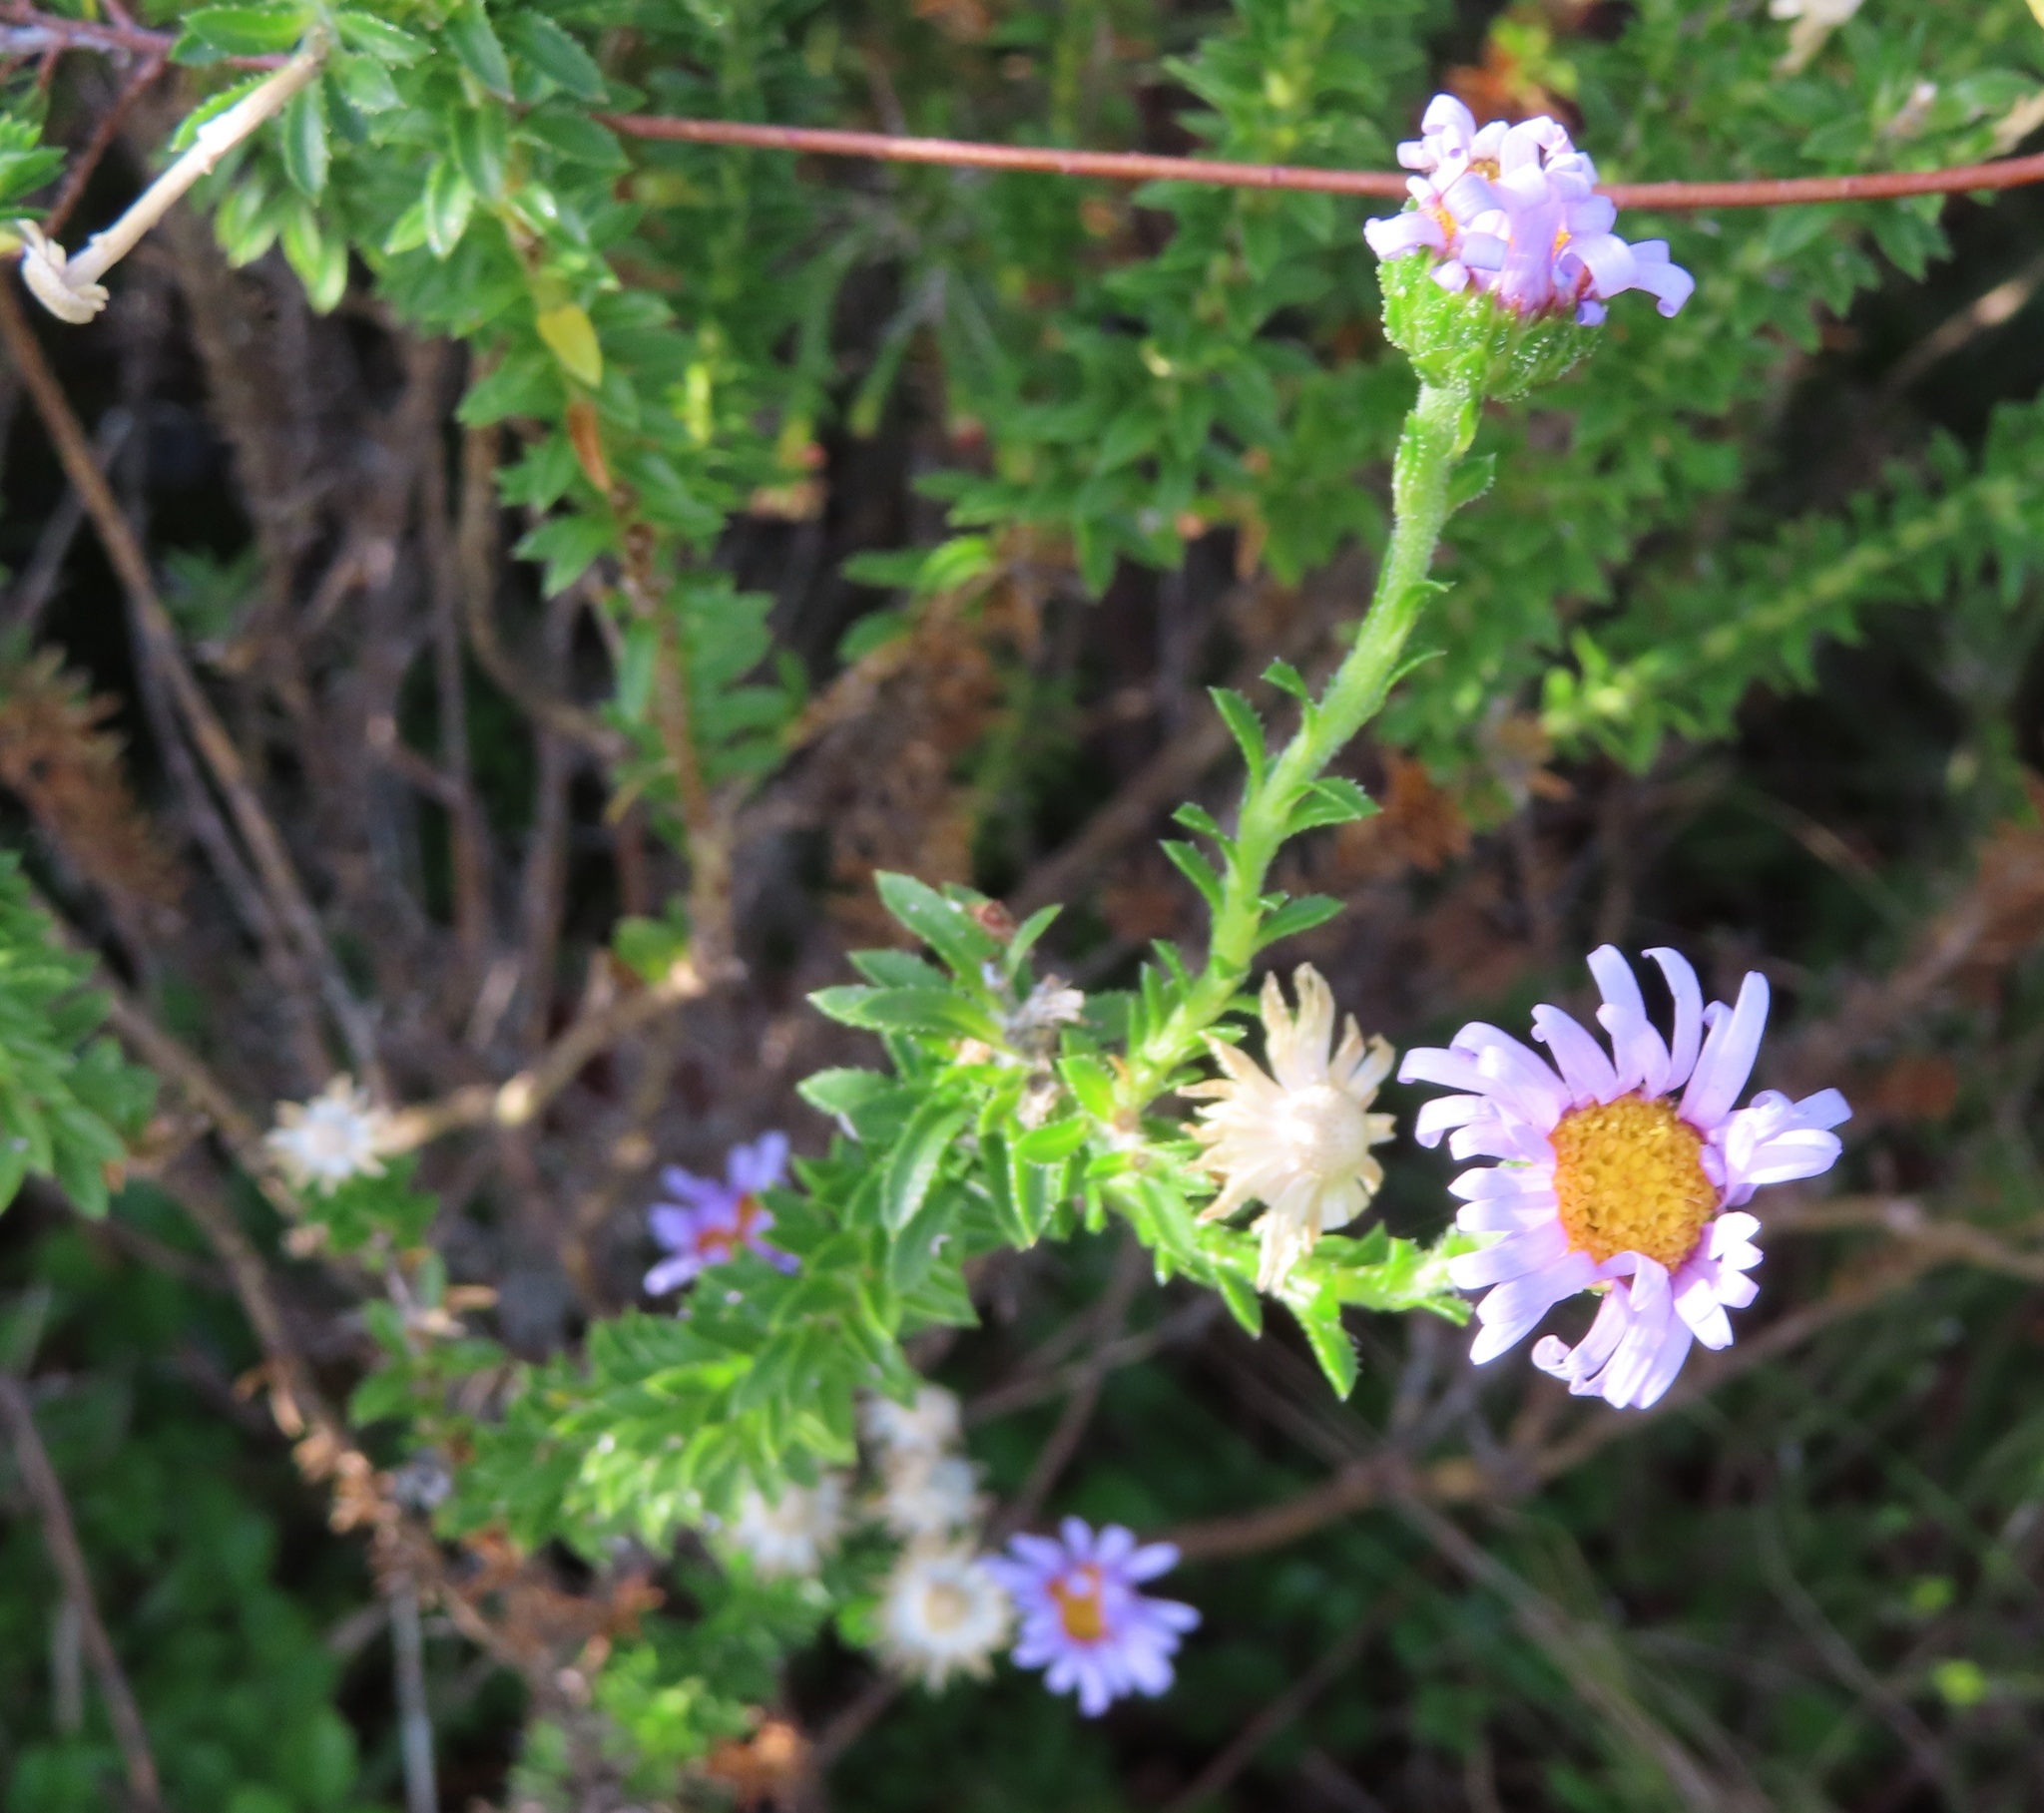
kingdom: Plantae
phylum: Tracheophyta
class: Magnoliopsida
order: Asterales
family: Asteraceae
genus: Felicia
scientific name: Felicia echinata
